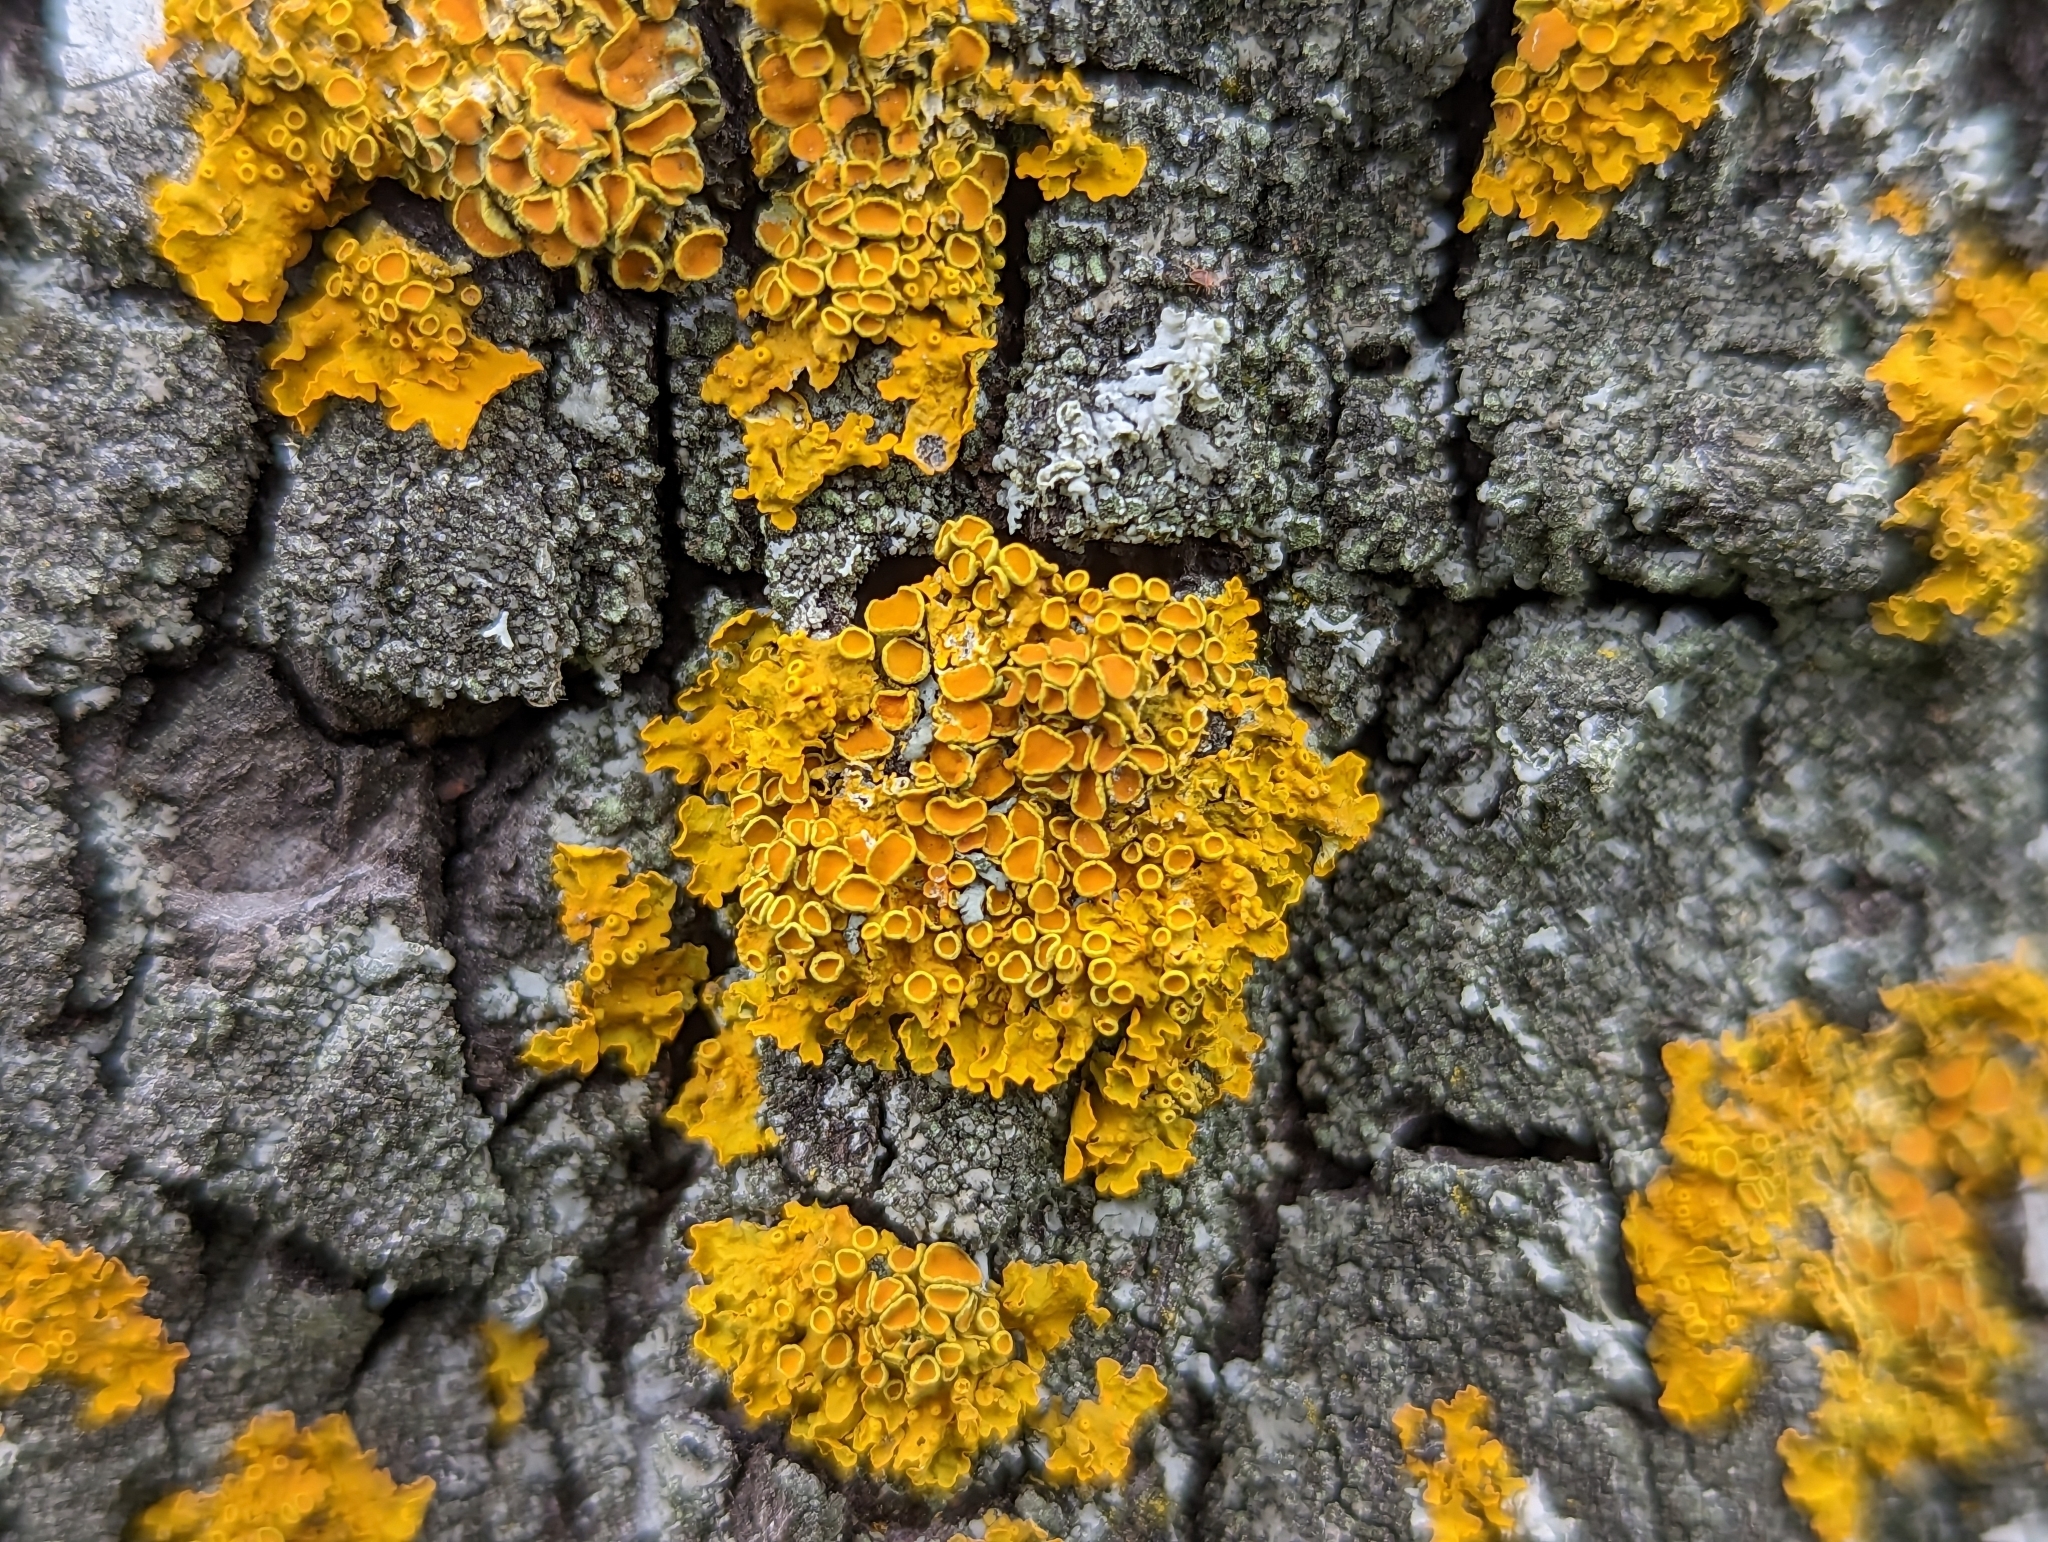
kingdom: Fungi
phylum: Ascomycota
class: Lecanoromycetes
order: Teloschistales
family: Teloschistaceae
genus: Xanthoria
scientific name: Xanthoria parietina
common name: Common orange lichen
